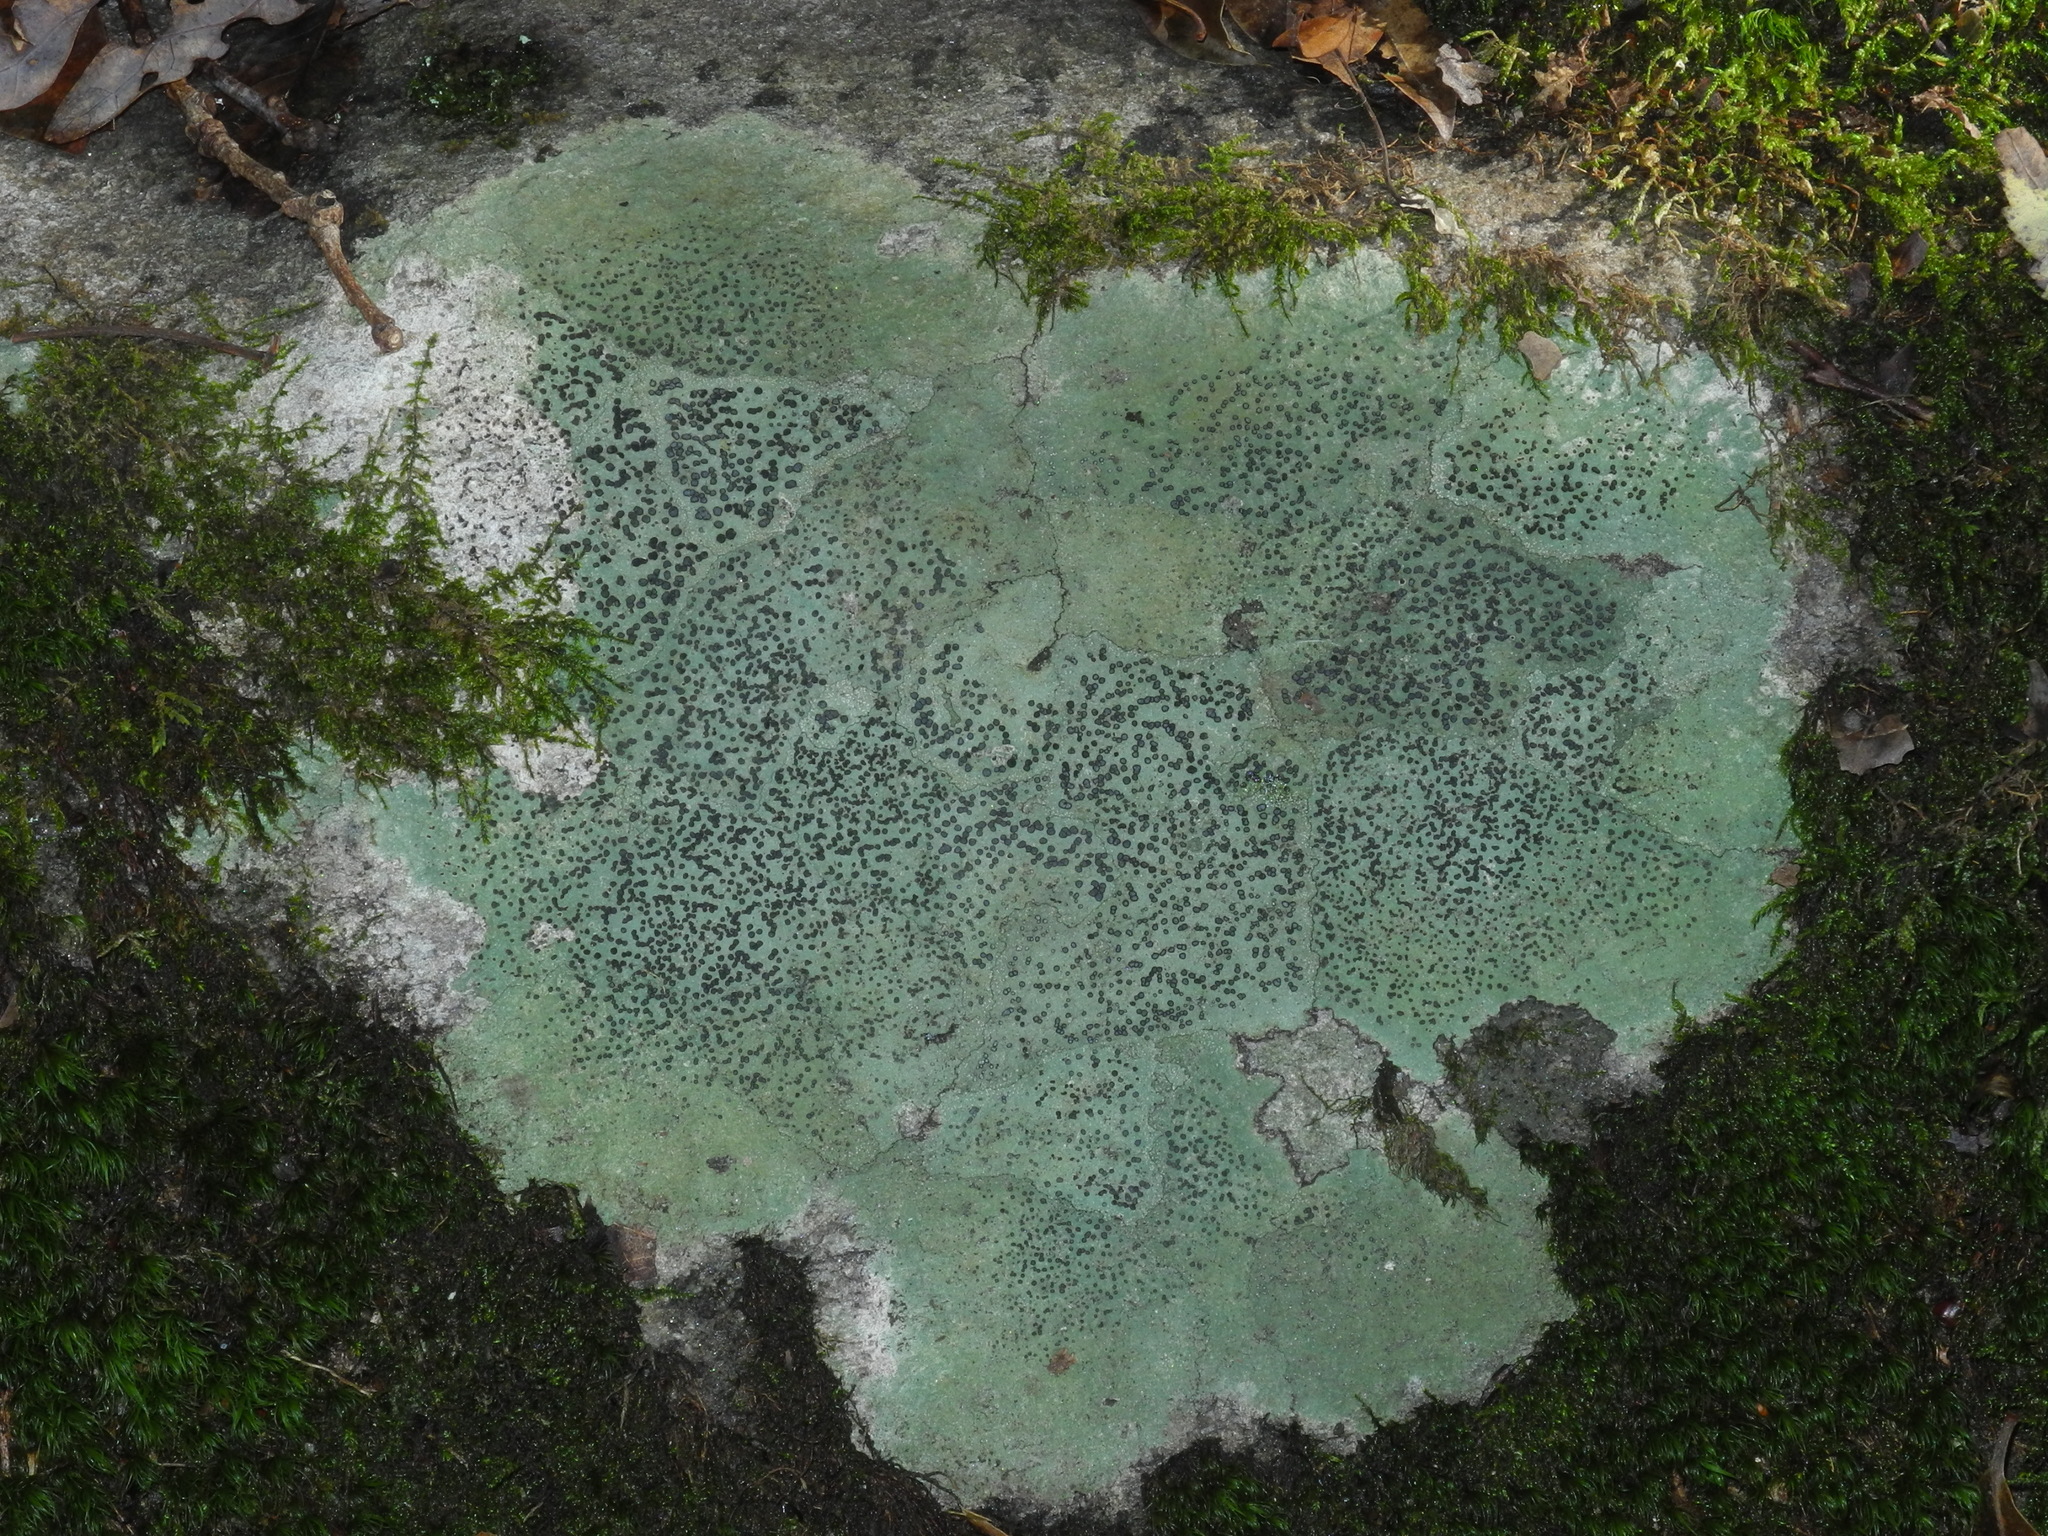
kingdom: Fungi
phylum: Ascomycota
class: Lecanoromycetes
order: Lecideales
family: Lecideaceae
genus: Porpidia
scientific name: Porpidia albocaerulescens
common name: Smokey-eyed boulder lichen
